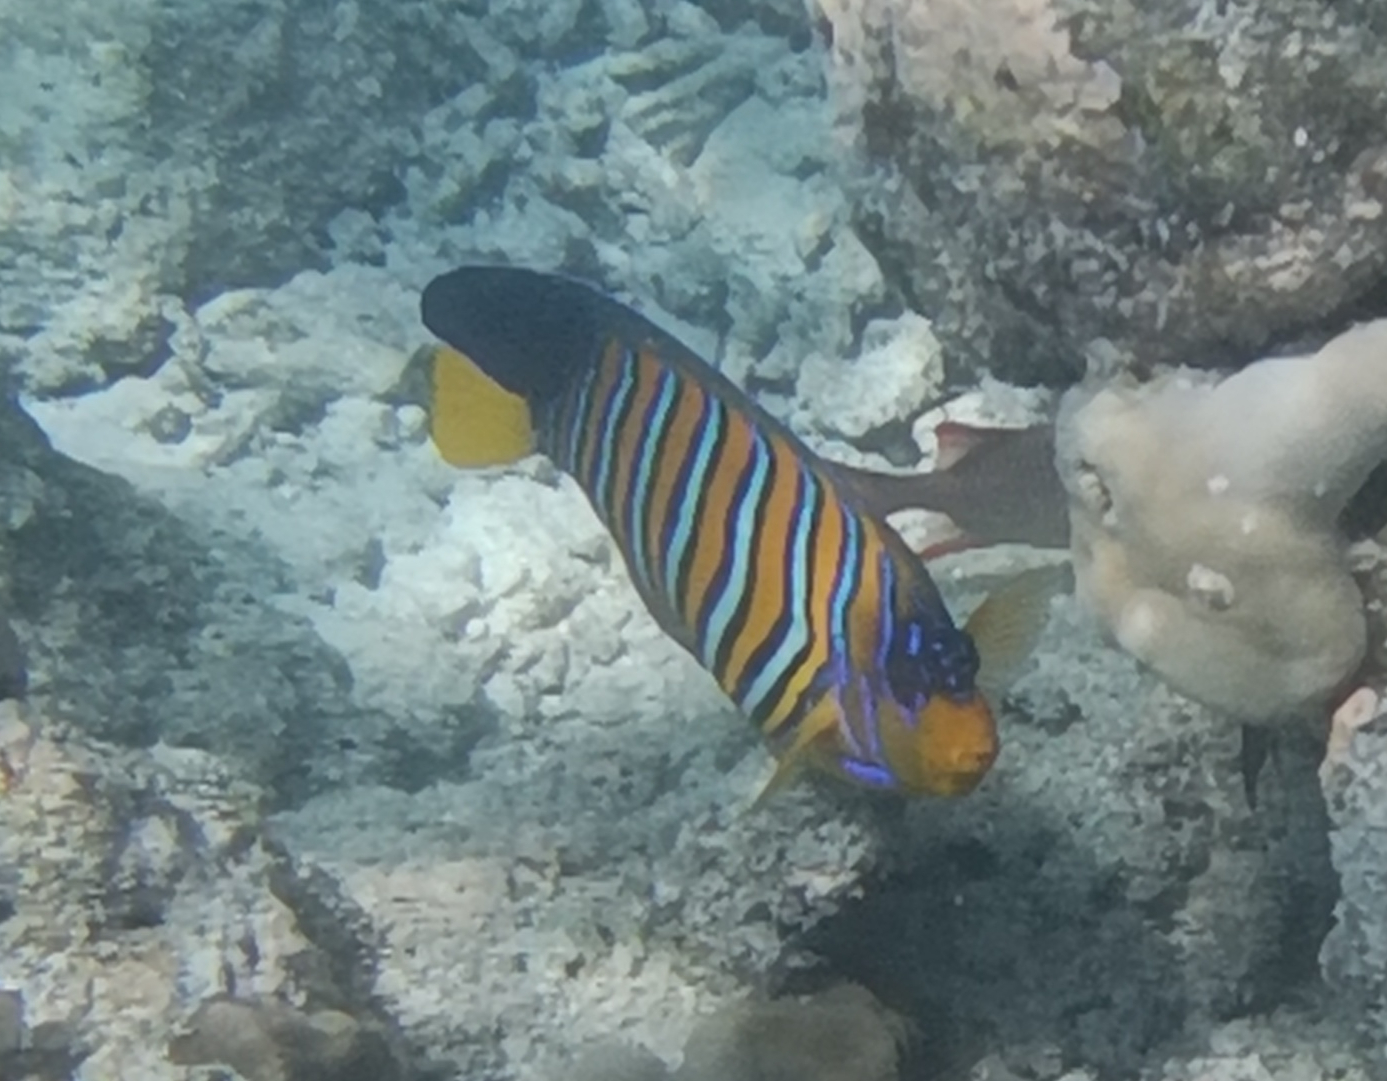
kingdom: Animalia
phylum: Chordata
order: Perciformes
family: Pomacanthidae
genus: Pygoplites
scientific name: Pygoplites diacanthus
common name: Regal angelfish
